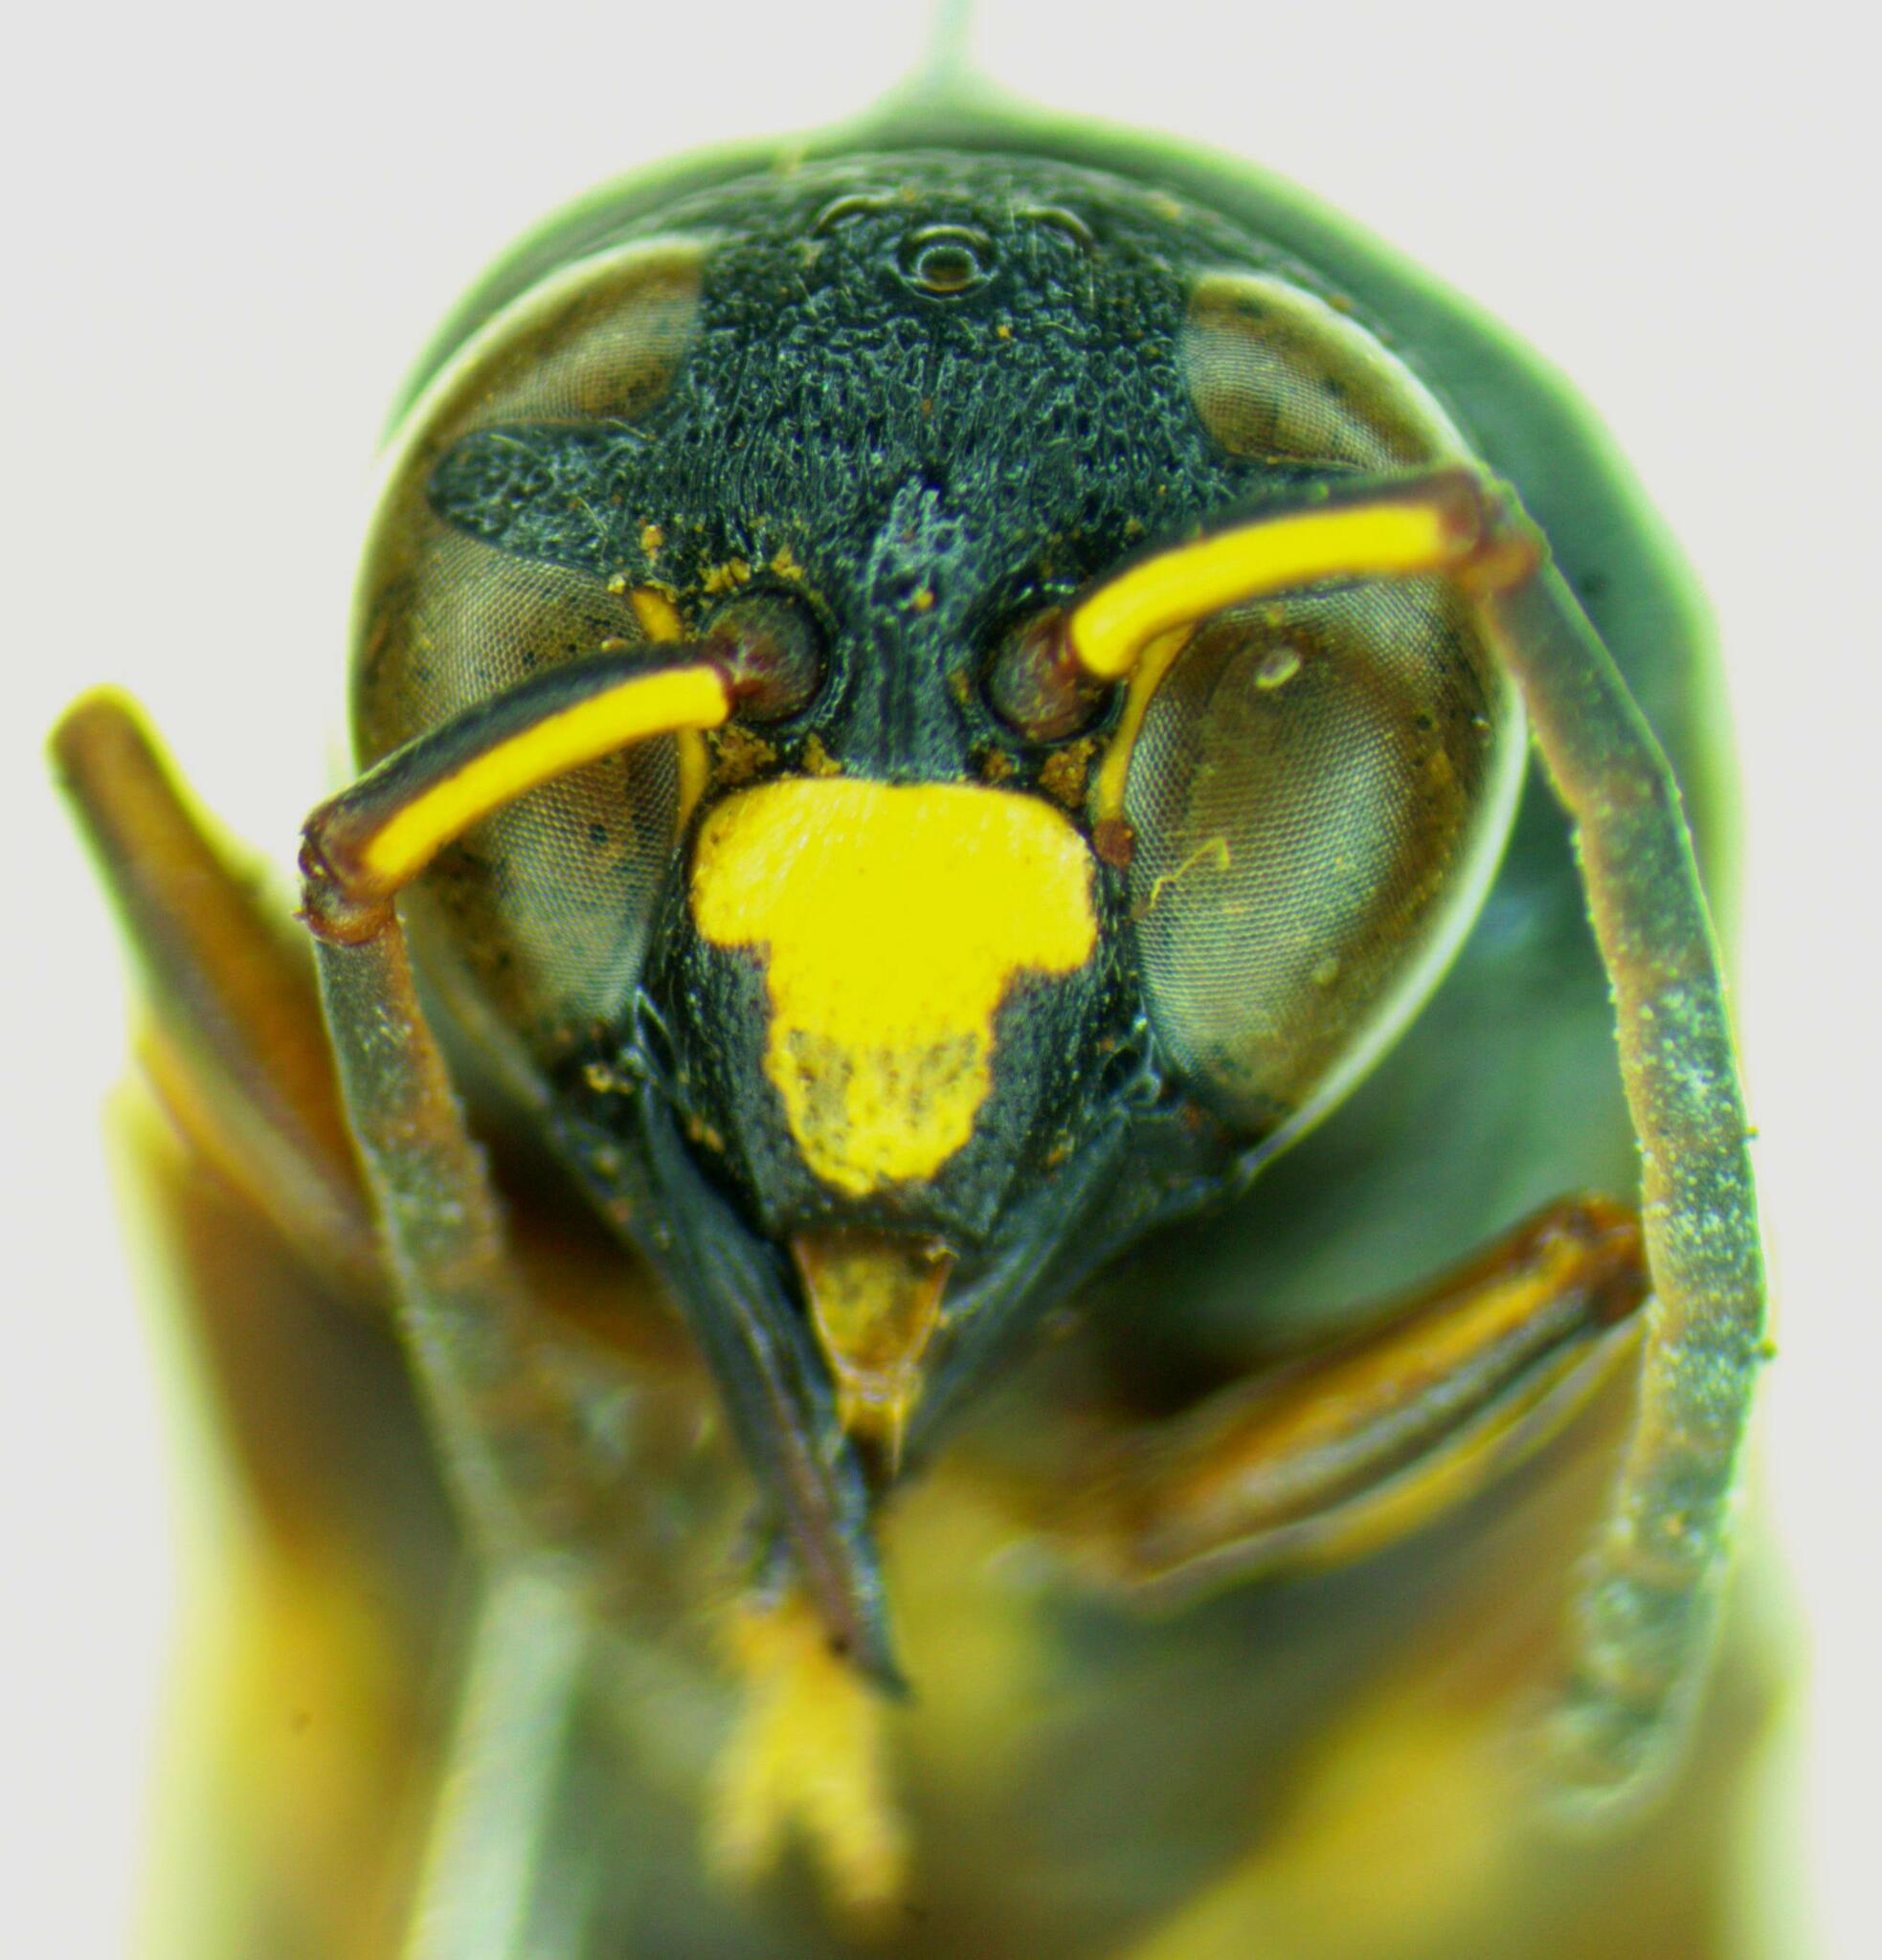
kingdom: Animalia
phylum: Arthropoda
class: Insecta
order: Hymenoptera
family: Eumenidae
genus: Monobia
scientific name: Monobia angulosa
